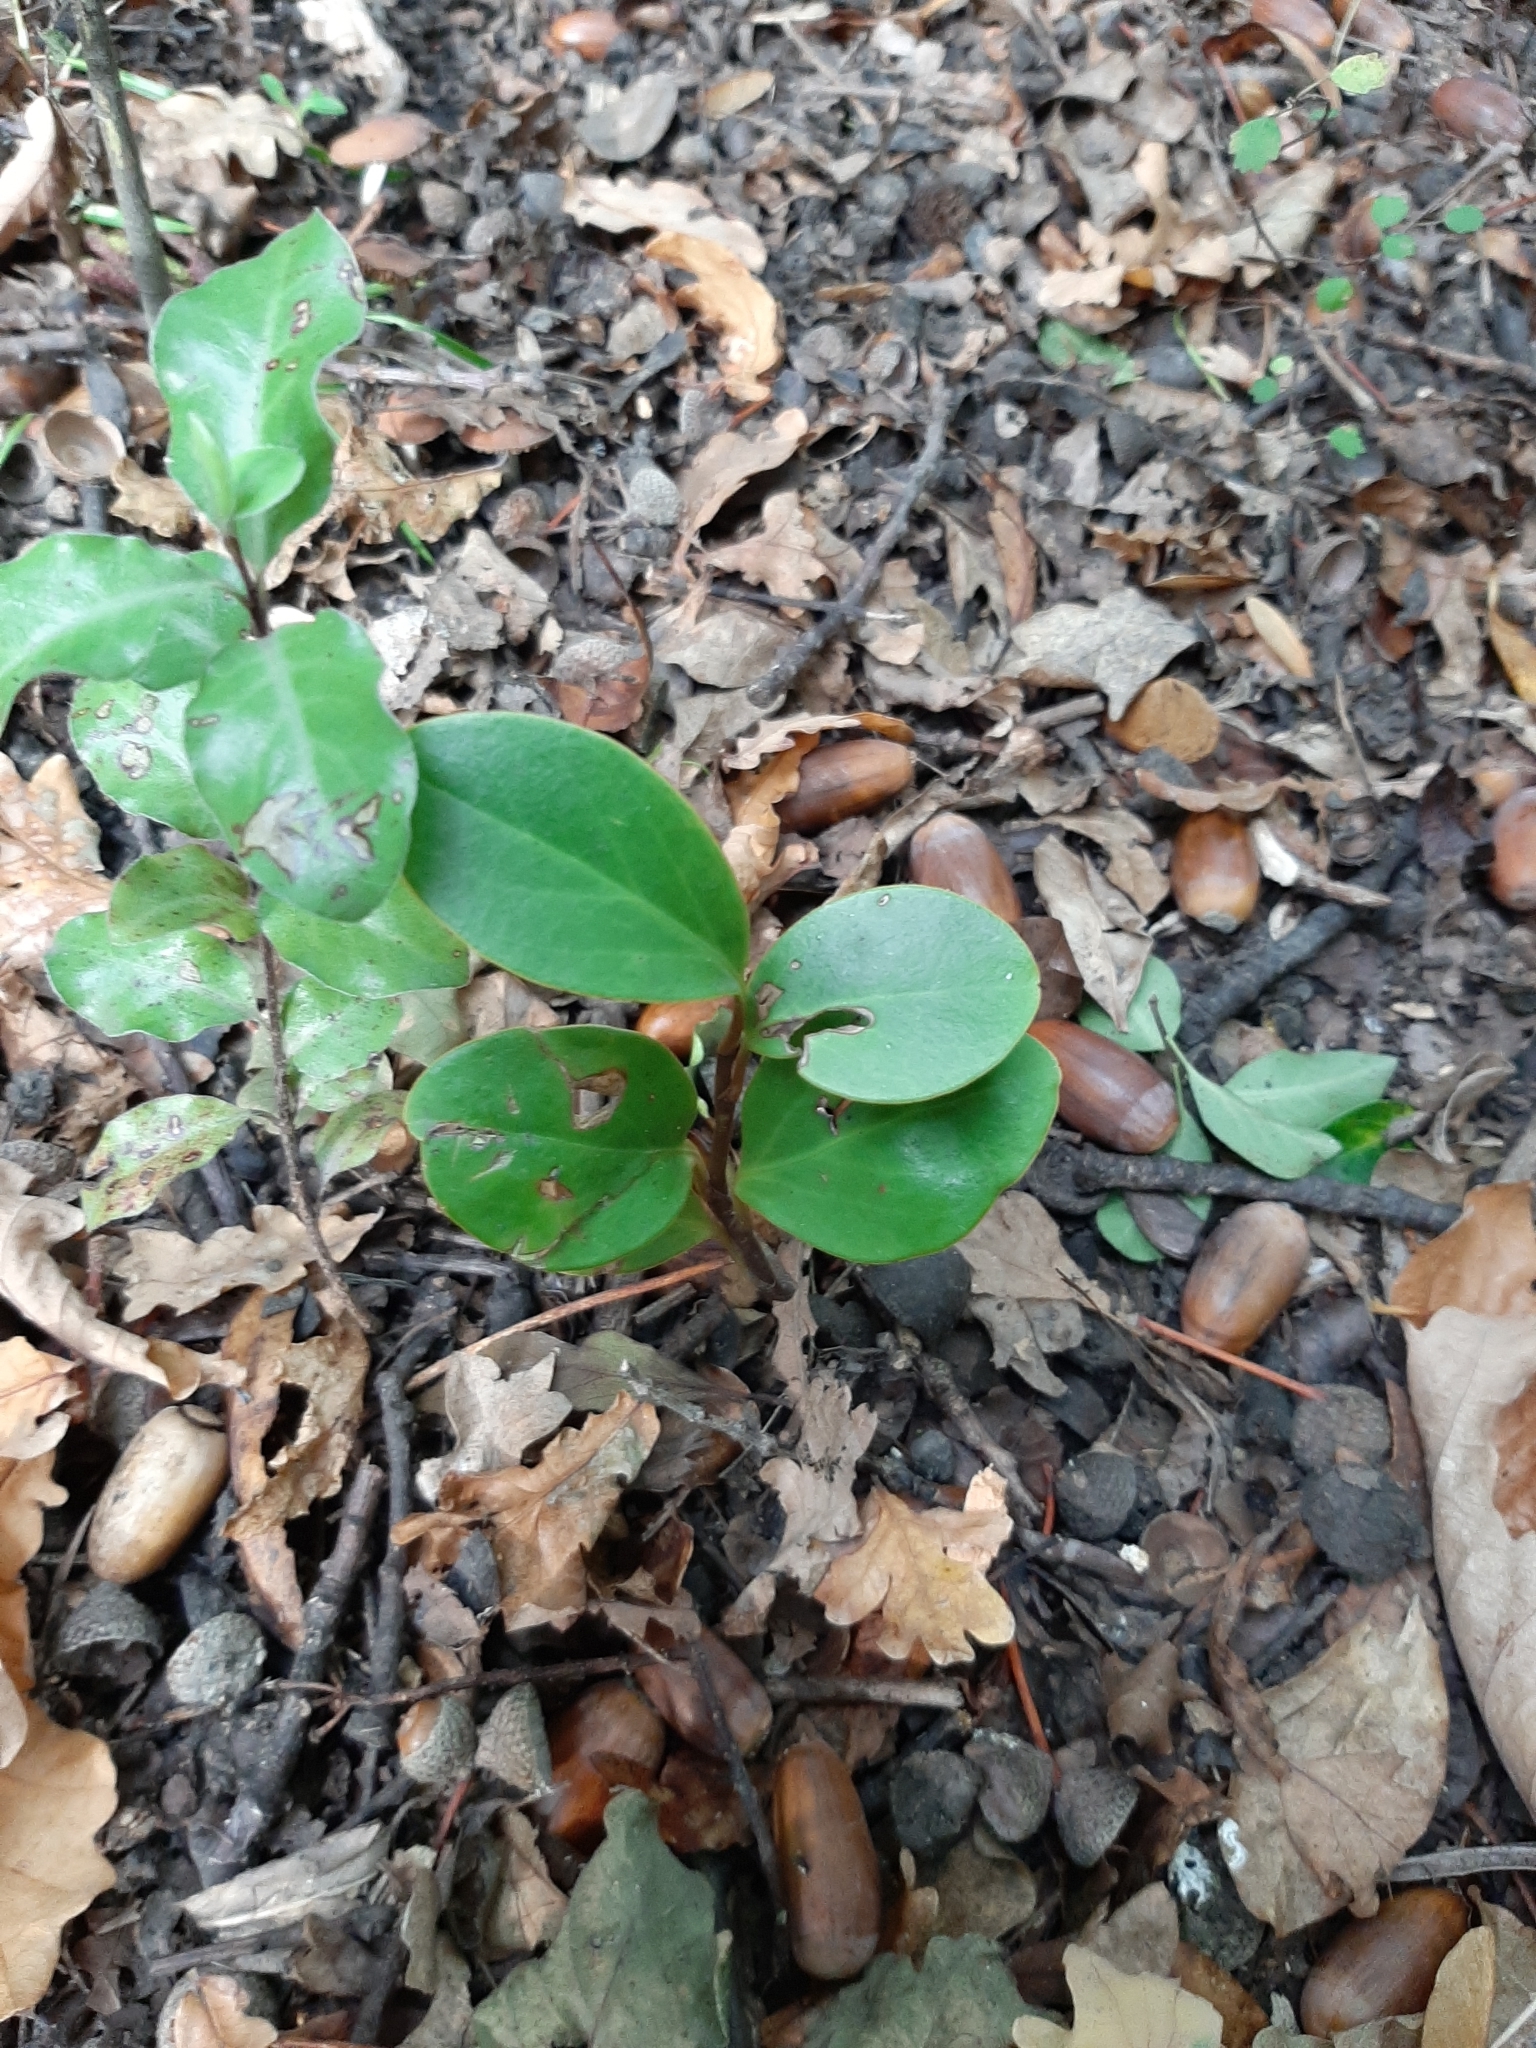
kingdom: Plantae
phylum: Tracheophyta
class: Magnoliopsida
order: Apiales
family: Griseliniaceae
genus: Griselinia
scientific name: Griselinia littoralis
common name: New zealand broadleaf
